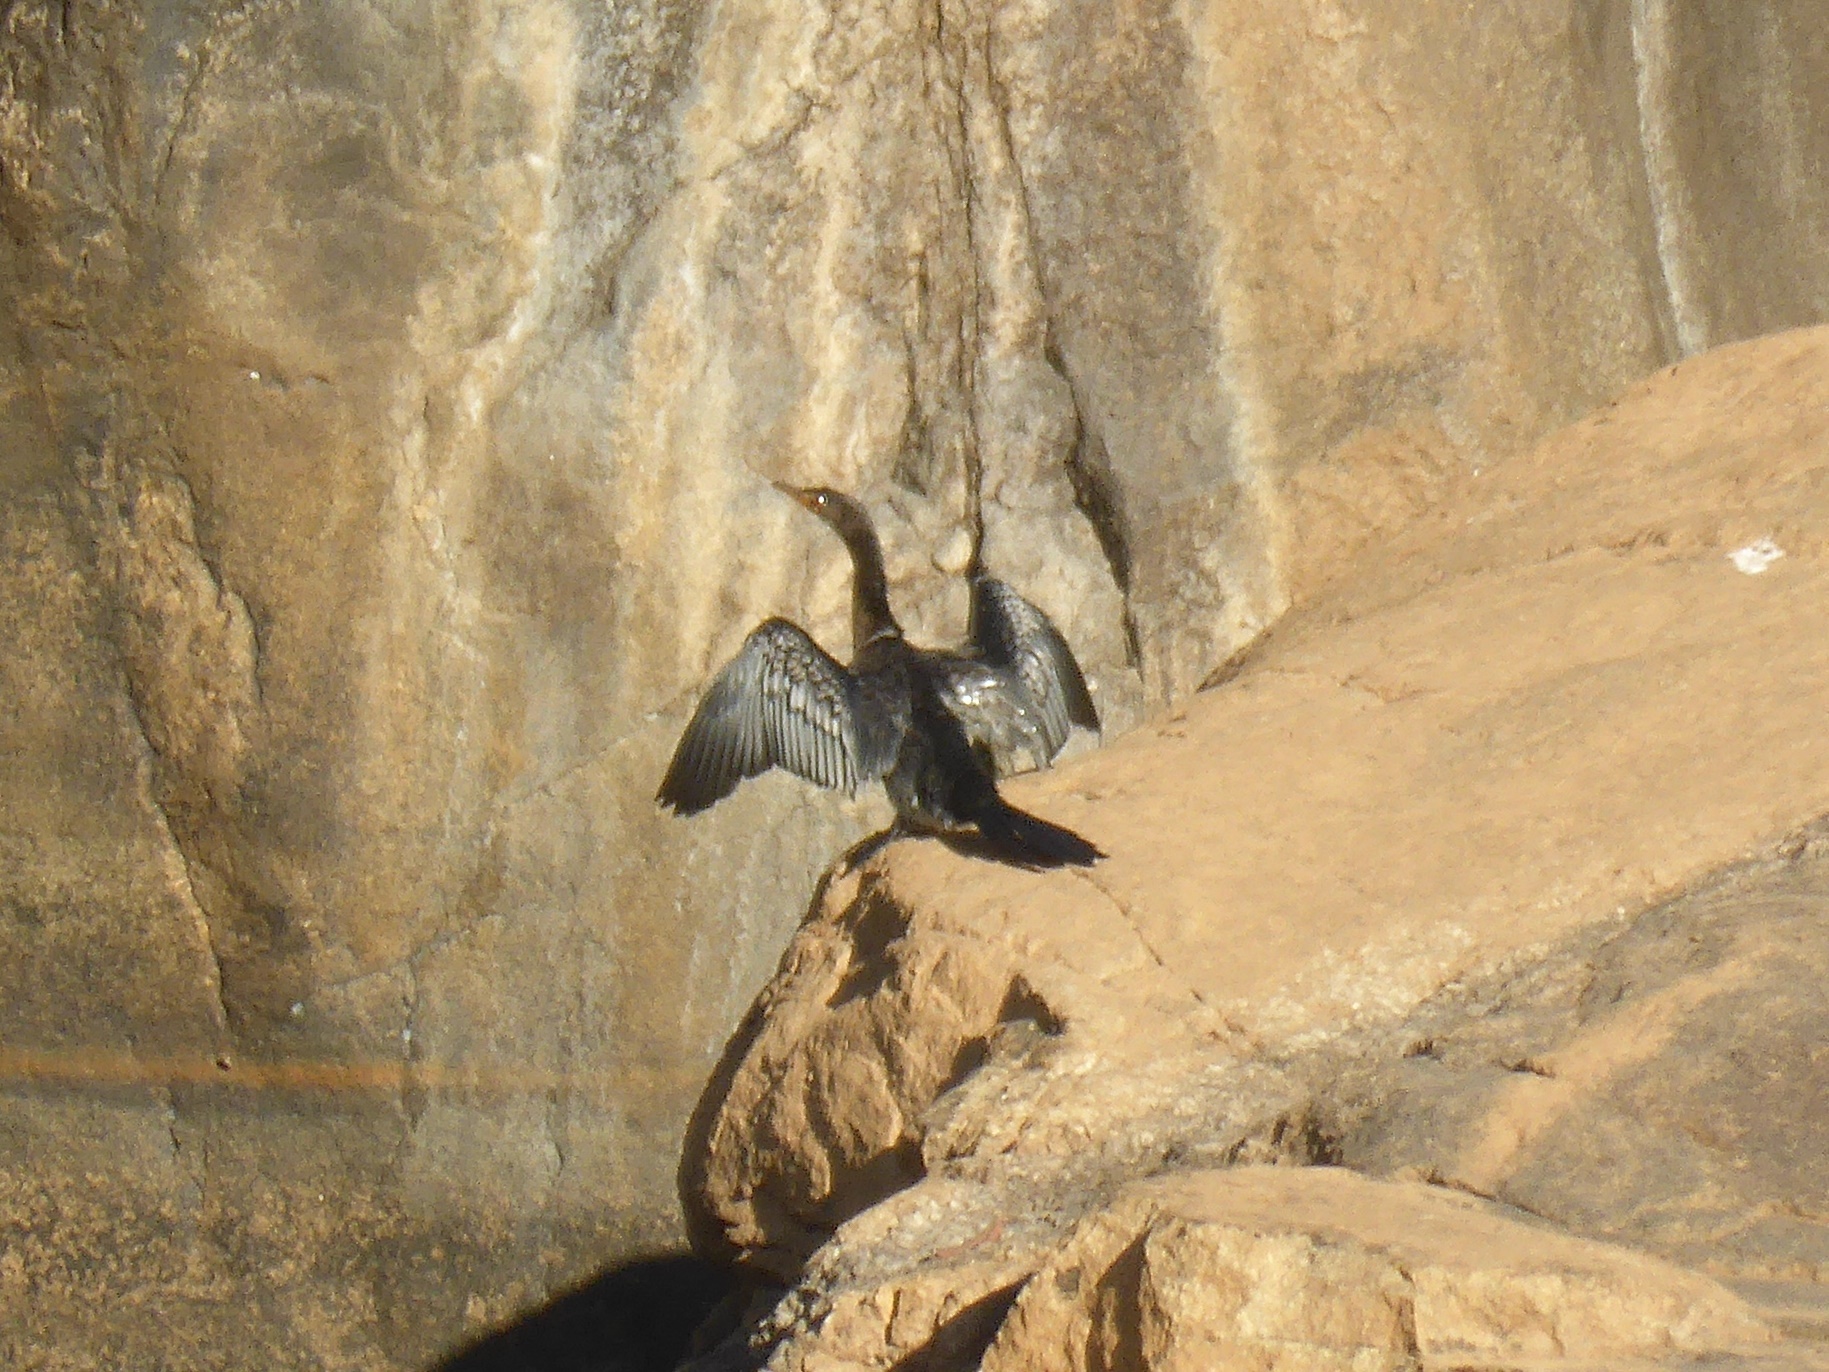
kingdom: Animalia
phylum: Chordata
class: Aves
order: Suliformes
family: Phalacrocoracidae
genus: Microcarbo
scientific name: Microcarbo africanus
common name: Long-tailed cormorant
